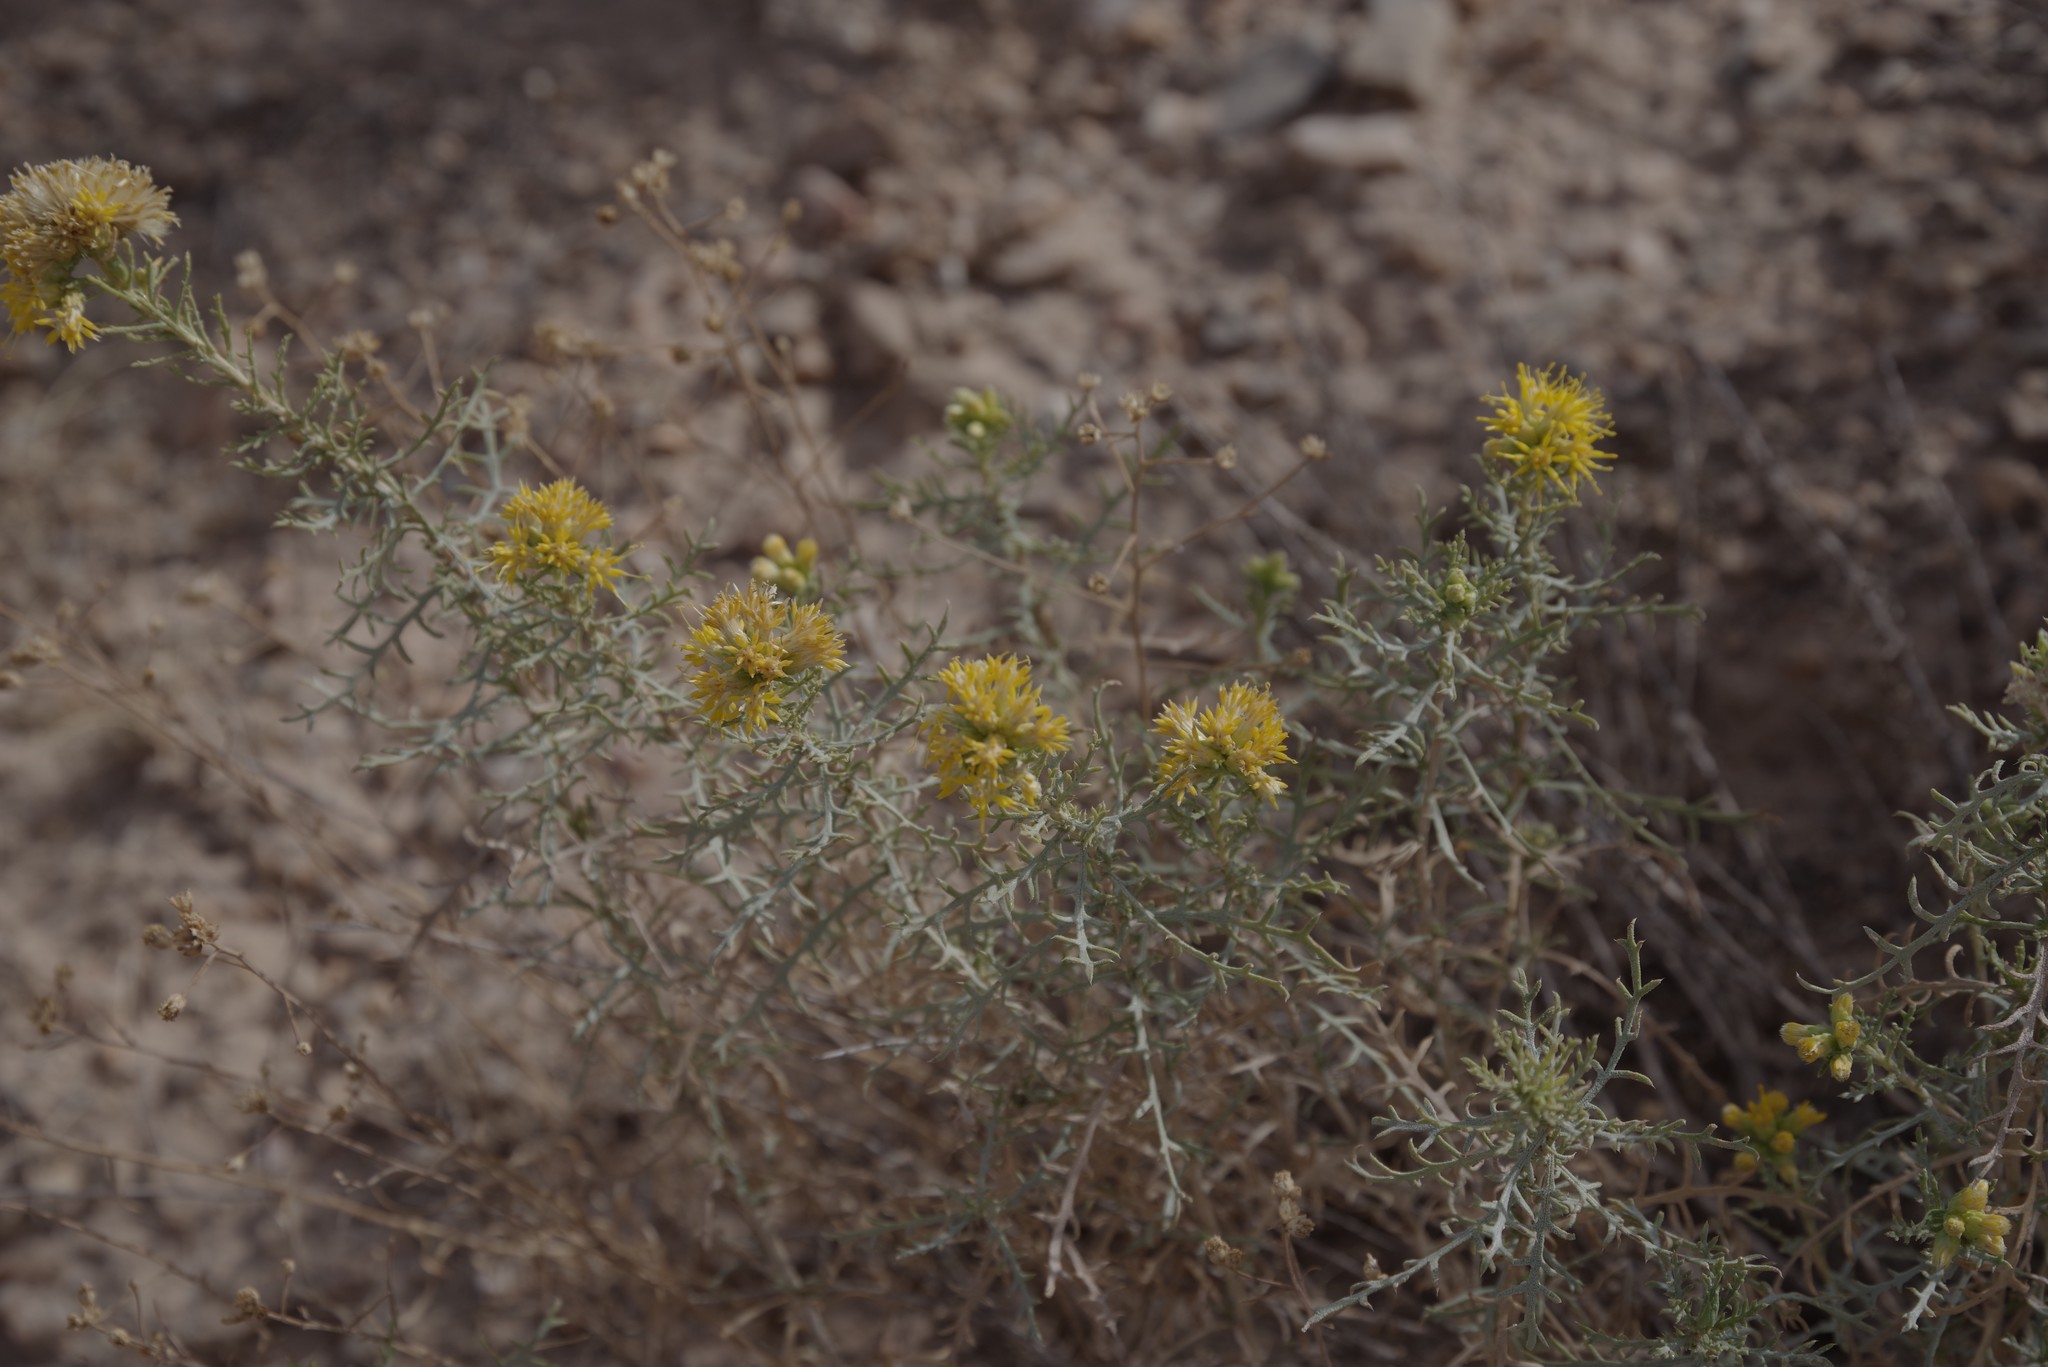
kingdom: Plantae
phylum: Tracheophyta
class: Magnoliopsida
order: Asterales
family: Asteraceae
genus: Isocoma
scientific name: Isocoma tenuisecta
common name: Burroweed
